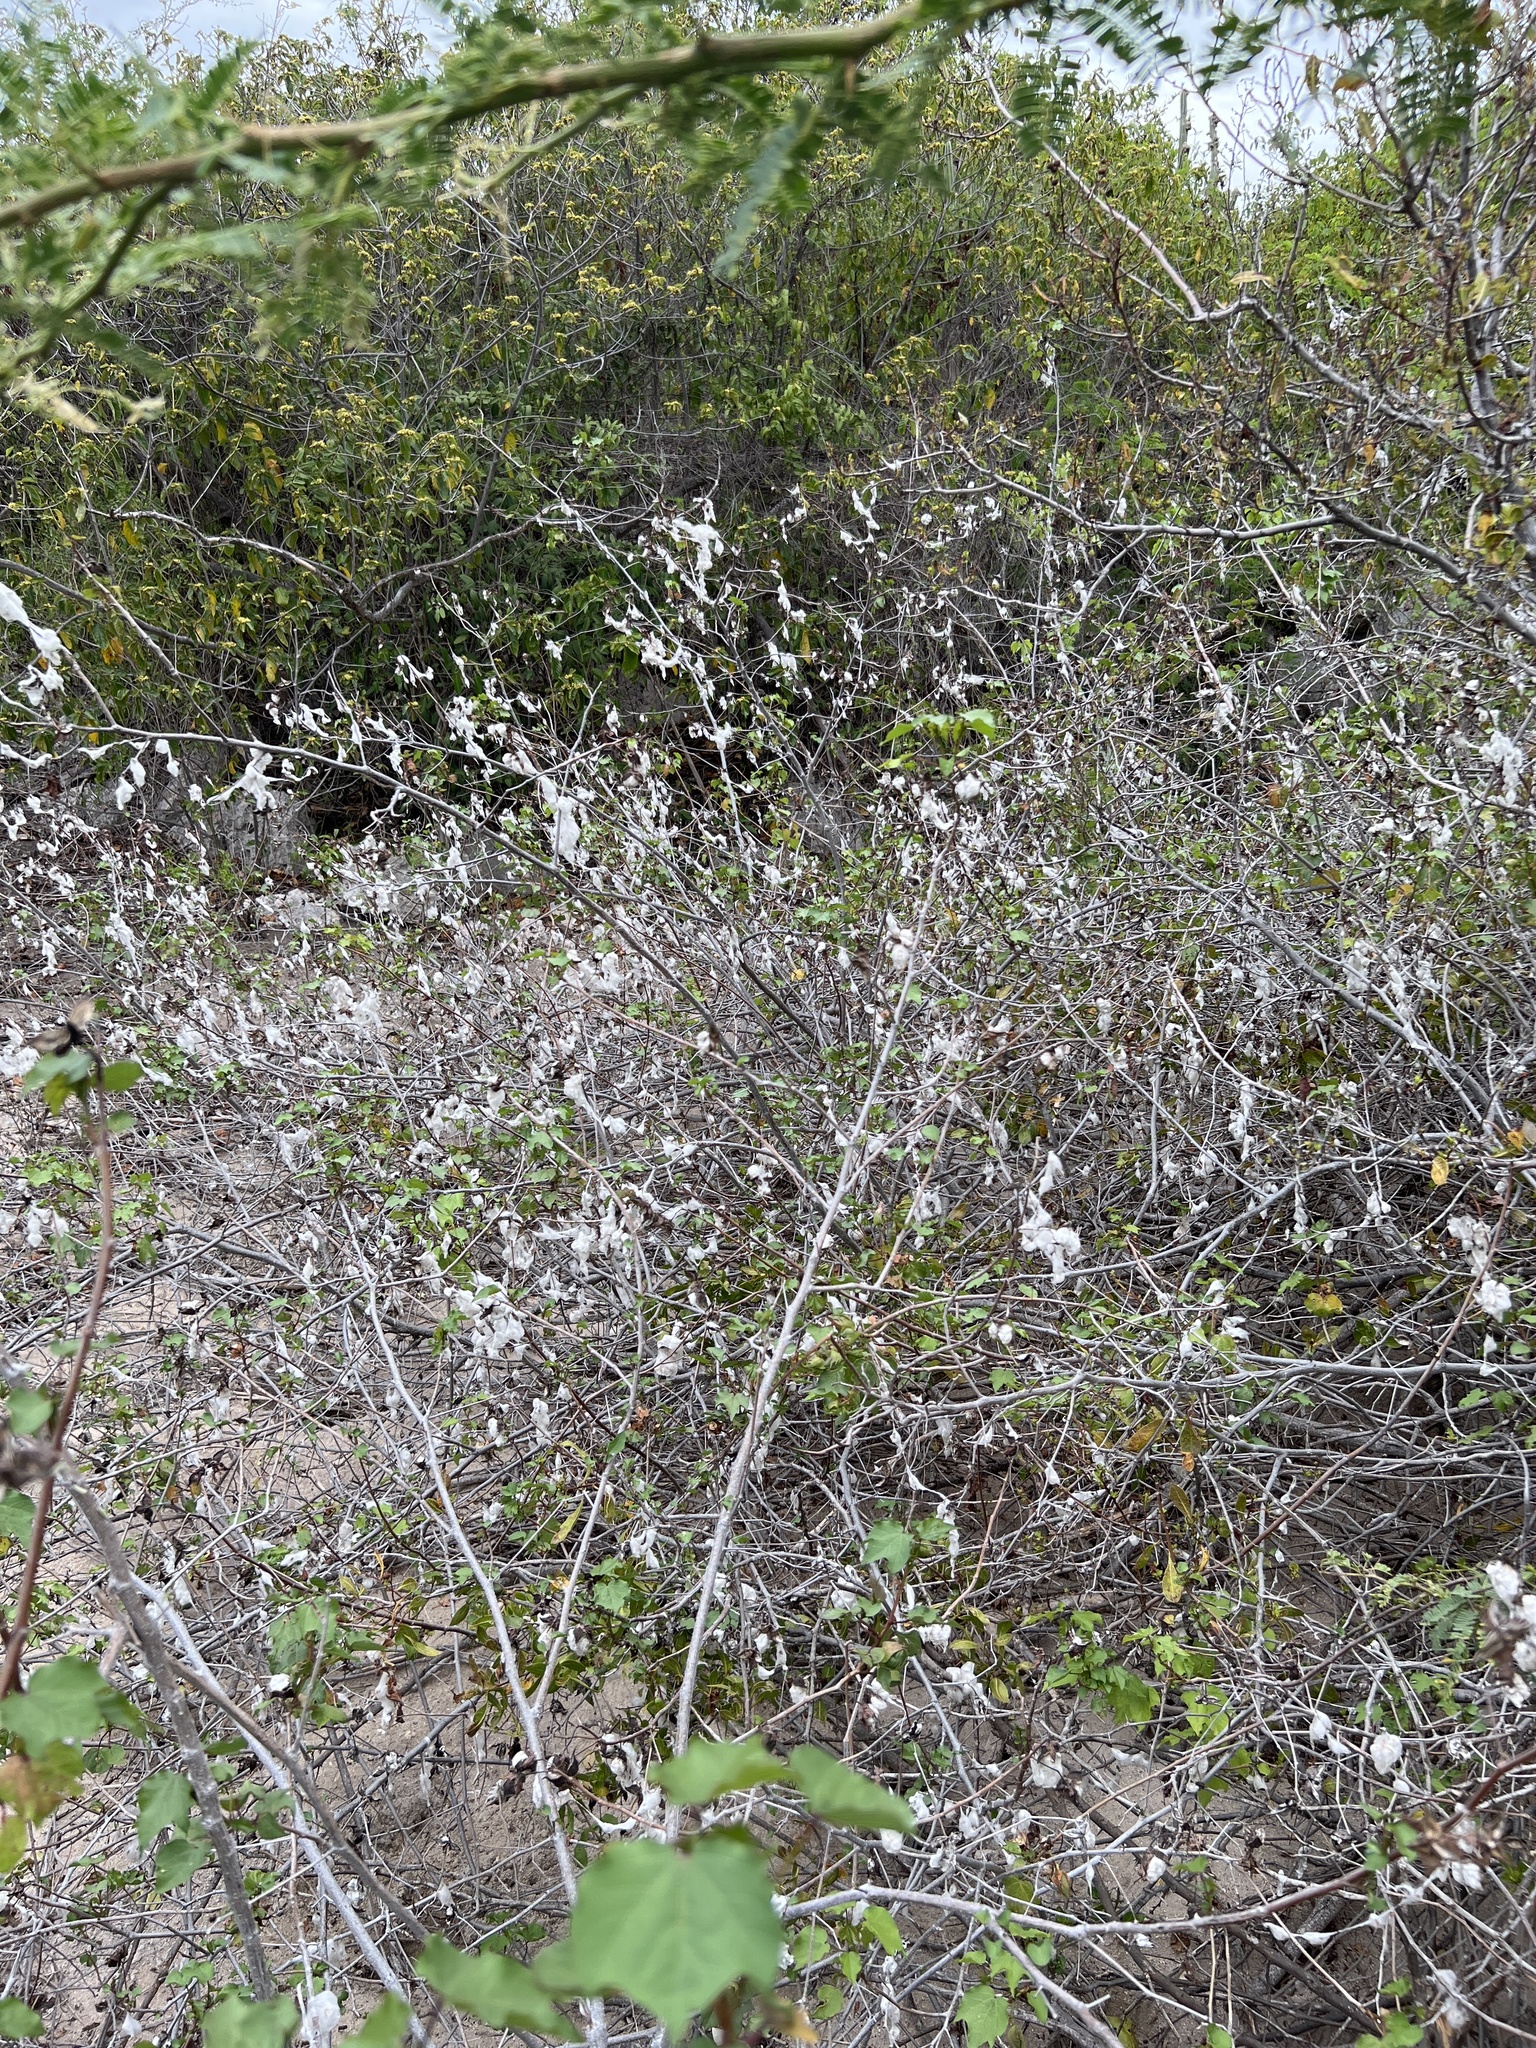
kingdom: Plantae
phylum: Tracheophyta
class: Magnoliopsida
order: Malvales
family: Malvaceae
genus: Gossypium
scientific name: Gossypium hirsutum
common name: Cotton
